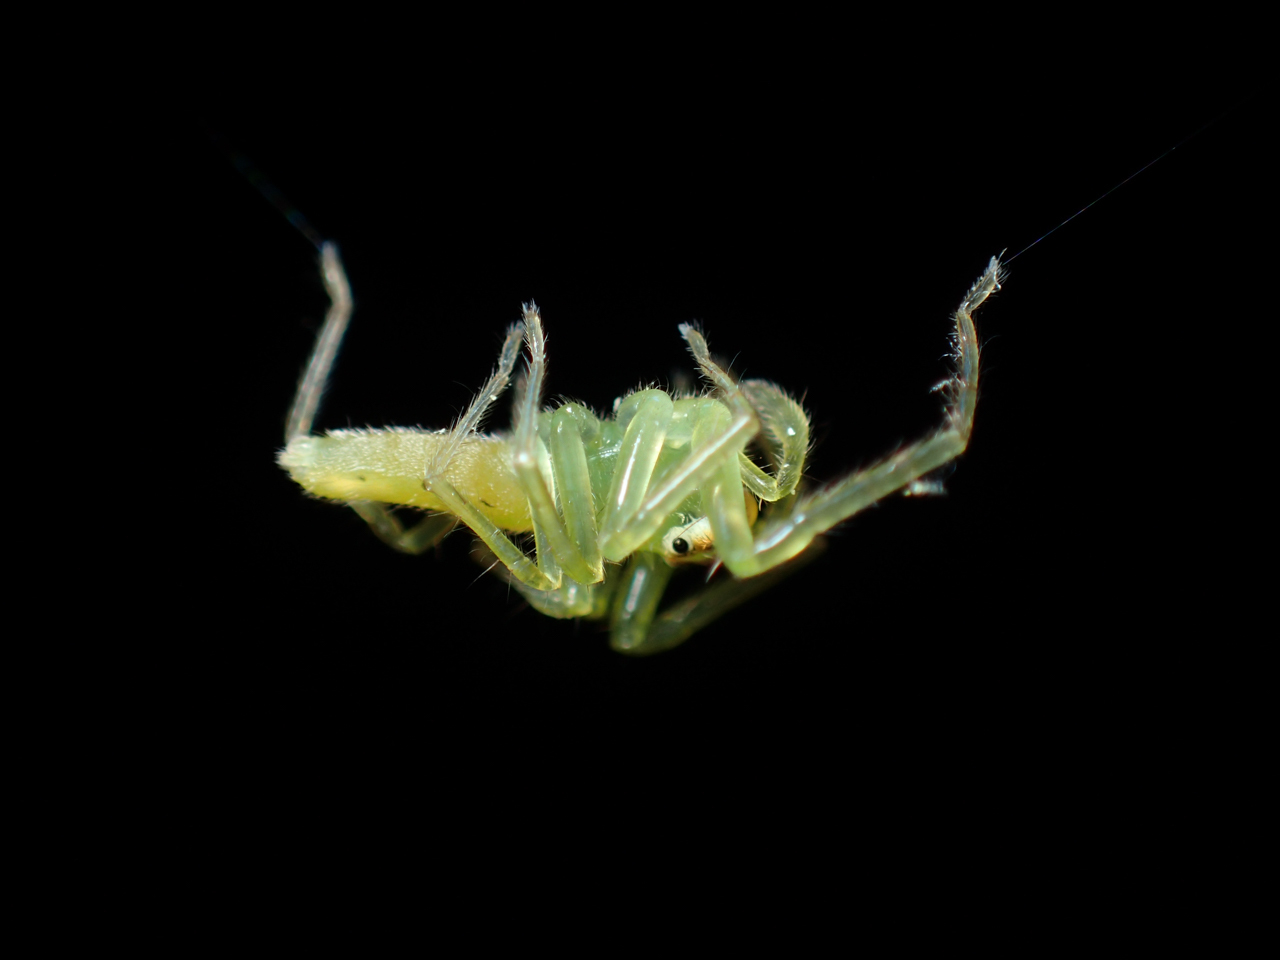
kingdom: Animalia
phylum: Arthropoda
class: Arachnida
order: Araneae
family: Salticidae
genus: Lyssomanes
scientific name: Lyssomanes viridis
